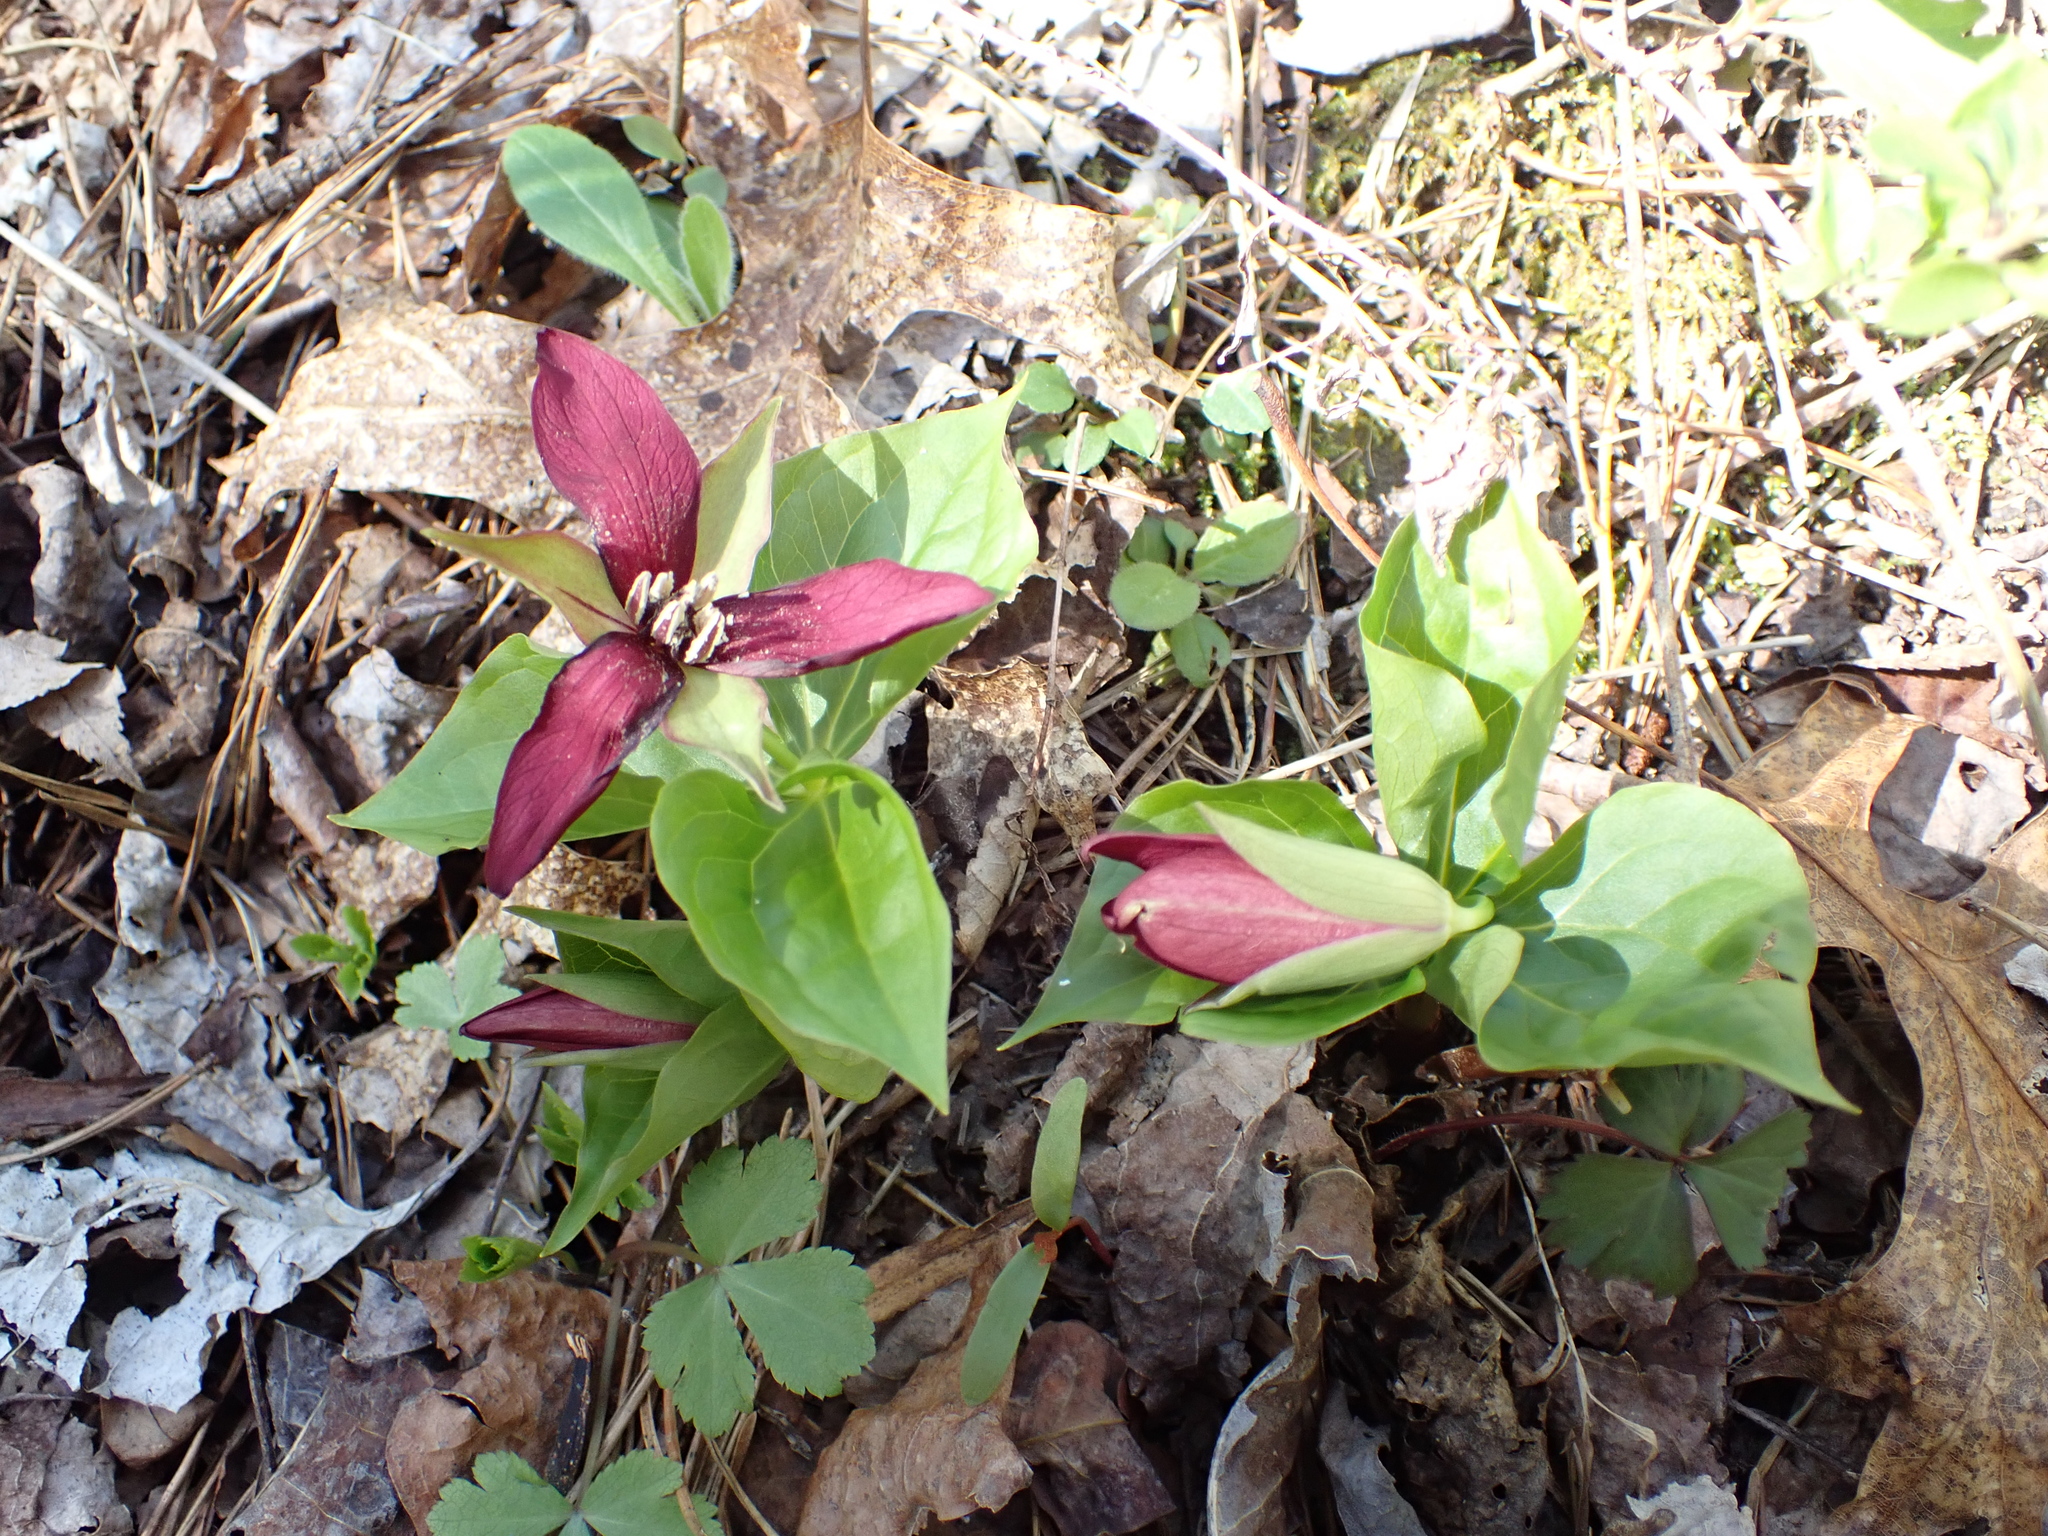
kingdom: Plantae
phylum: Tracheophyta
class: Liliopsida
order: Liliales
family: Melanthiaceae
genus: Trillium
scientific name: Trillium erectum
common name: Purple trillium
